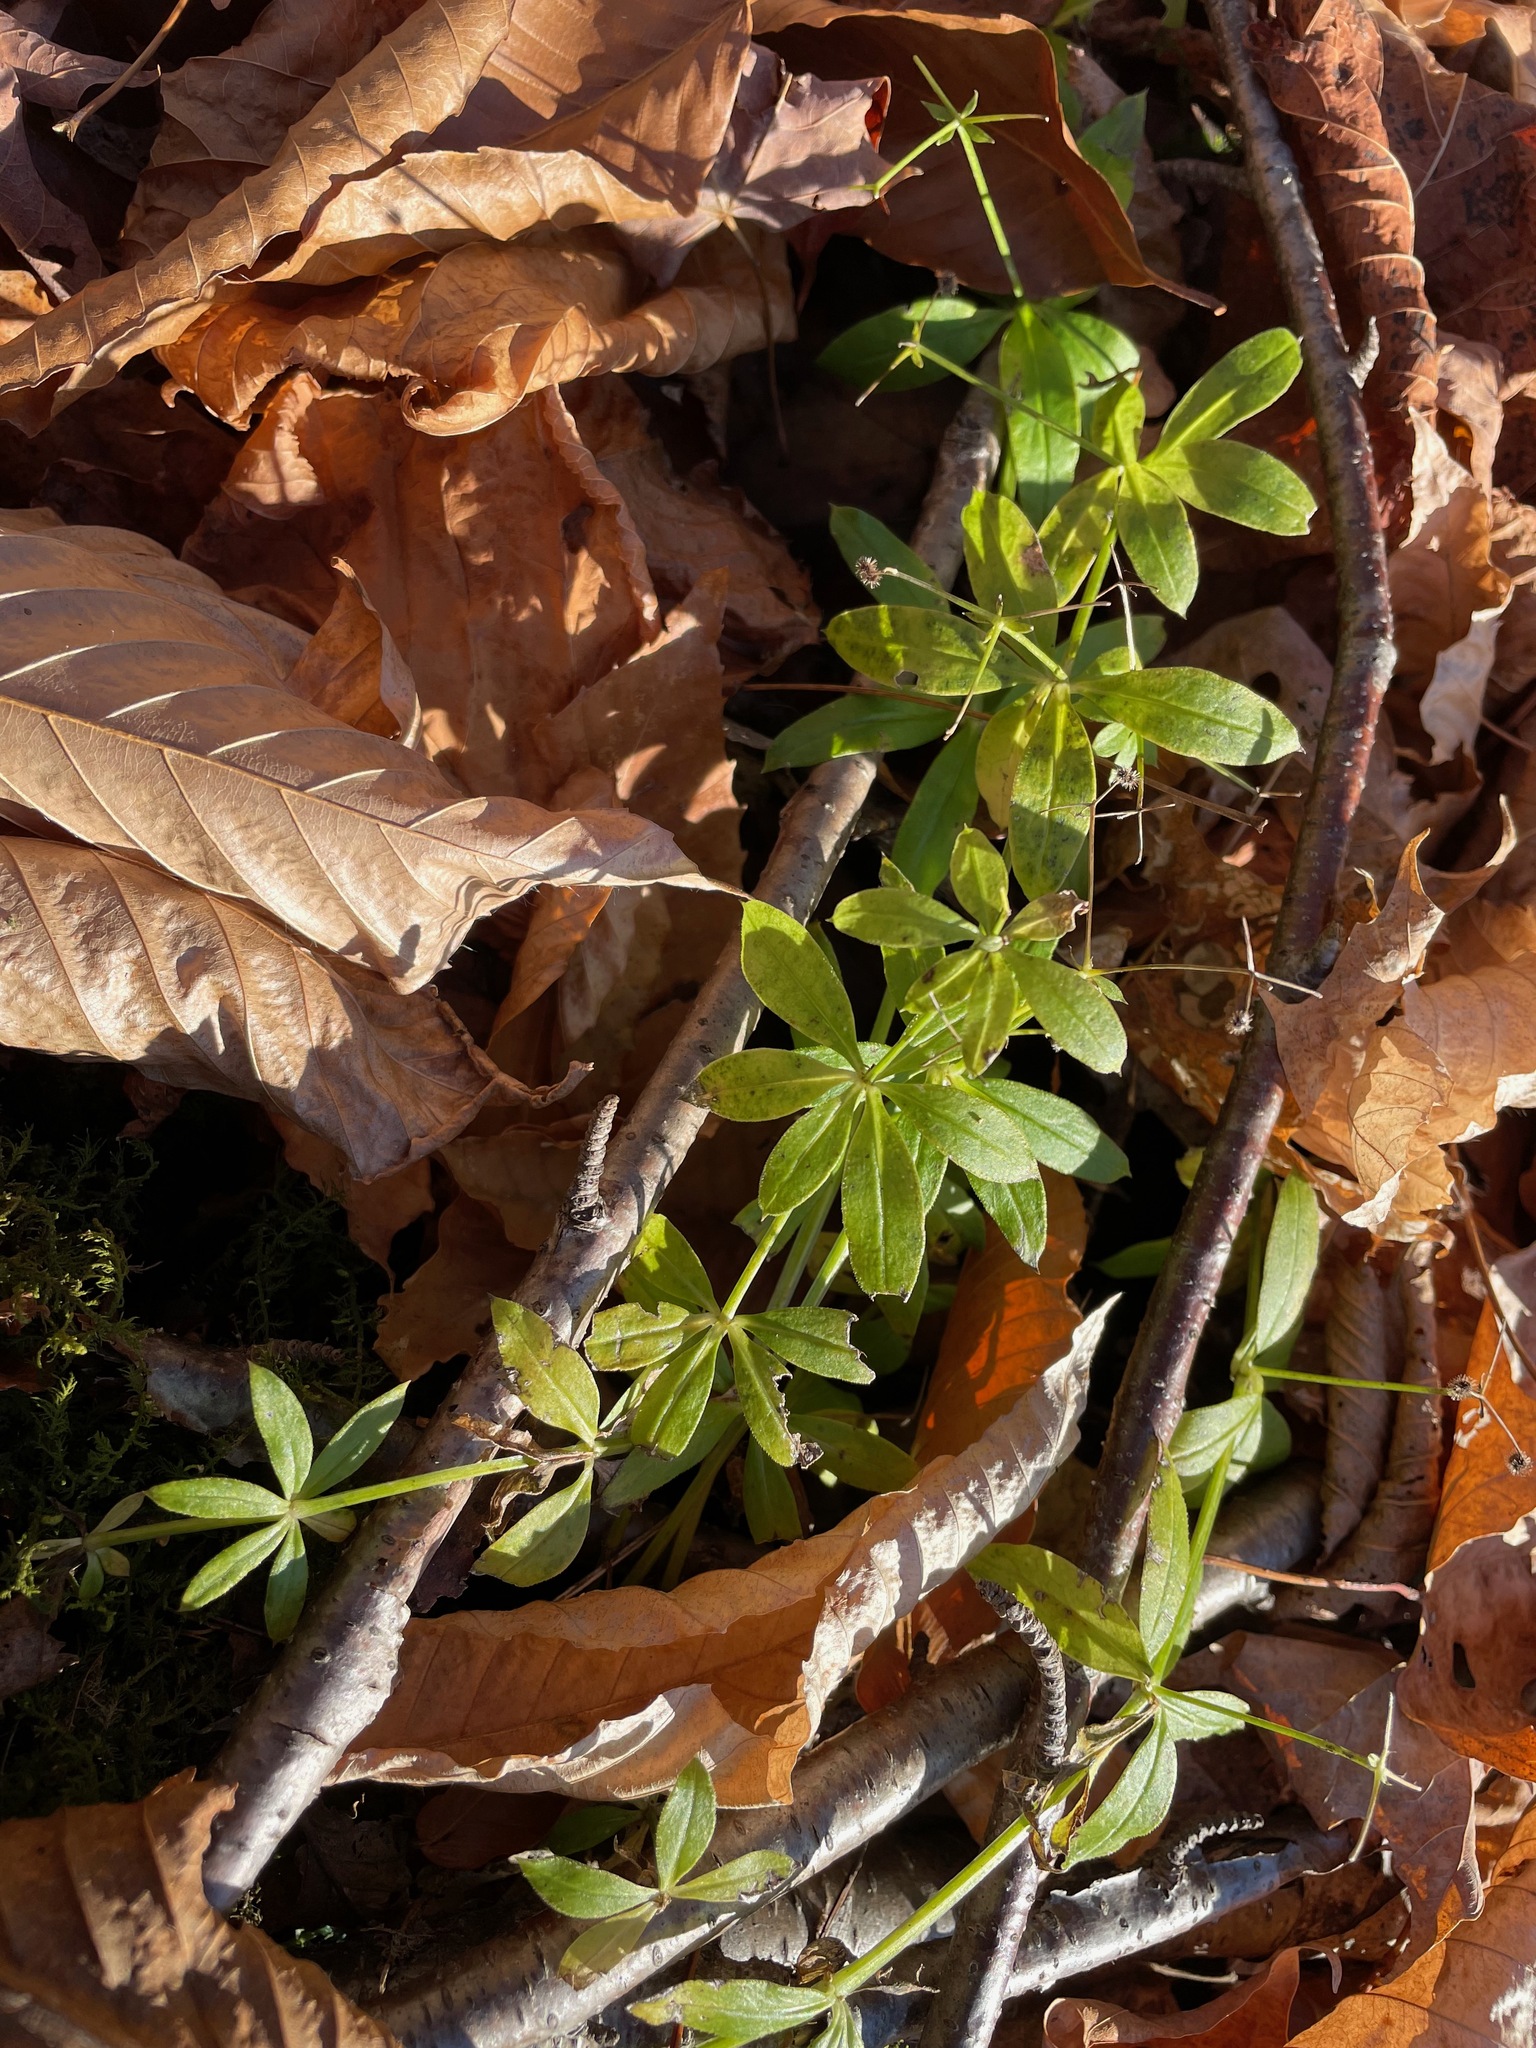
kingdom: Plantae
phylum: Tracheophyta
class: Magnoliopsida
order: Gentianales
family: Rubiaceae
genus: Galium
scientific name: Galium triflorum
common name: Fragrant bedstraw
